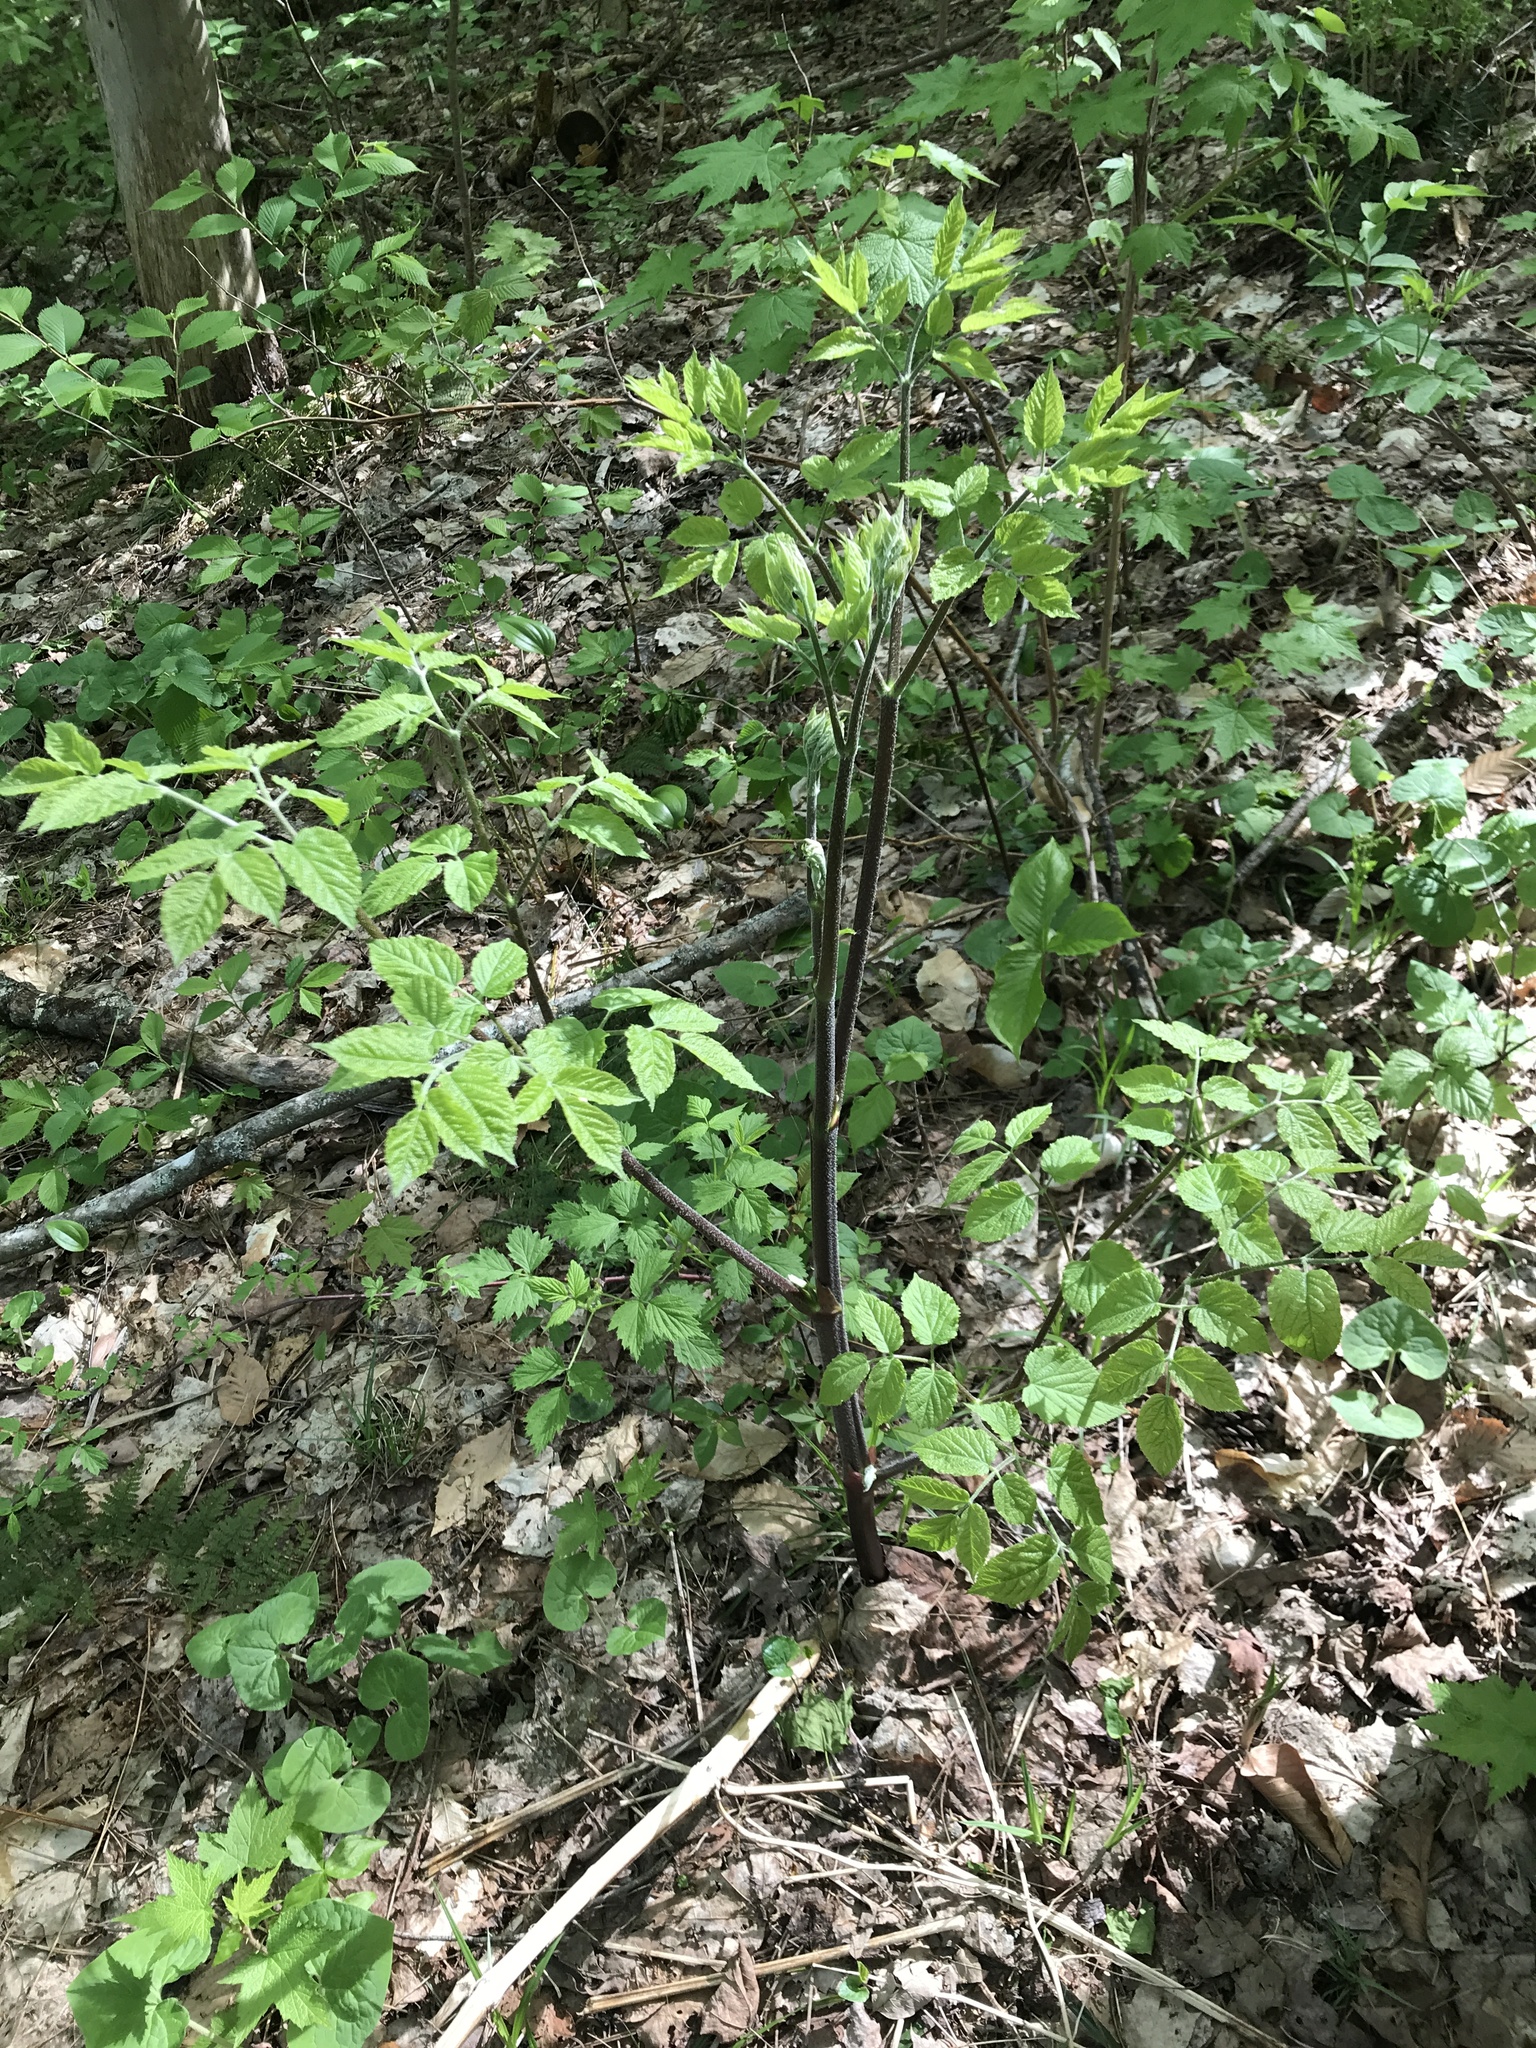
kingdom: Plantae
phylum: Tracheophyta
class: Magnoliopsida
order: Apiales
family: Araliaceae
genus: Aralia
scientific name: Aralia racemosa
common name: American-spikenard
